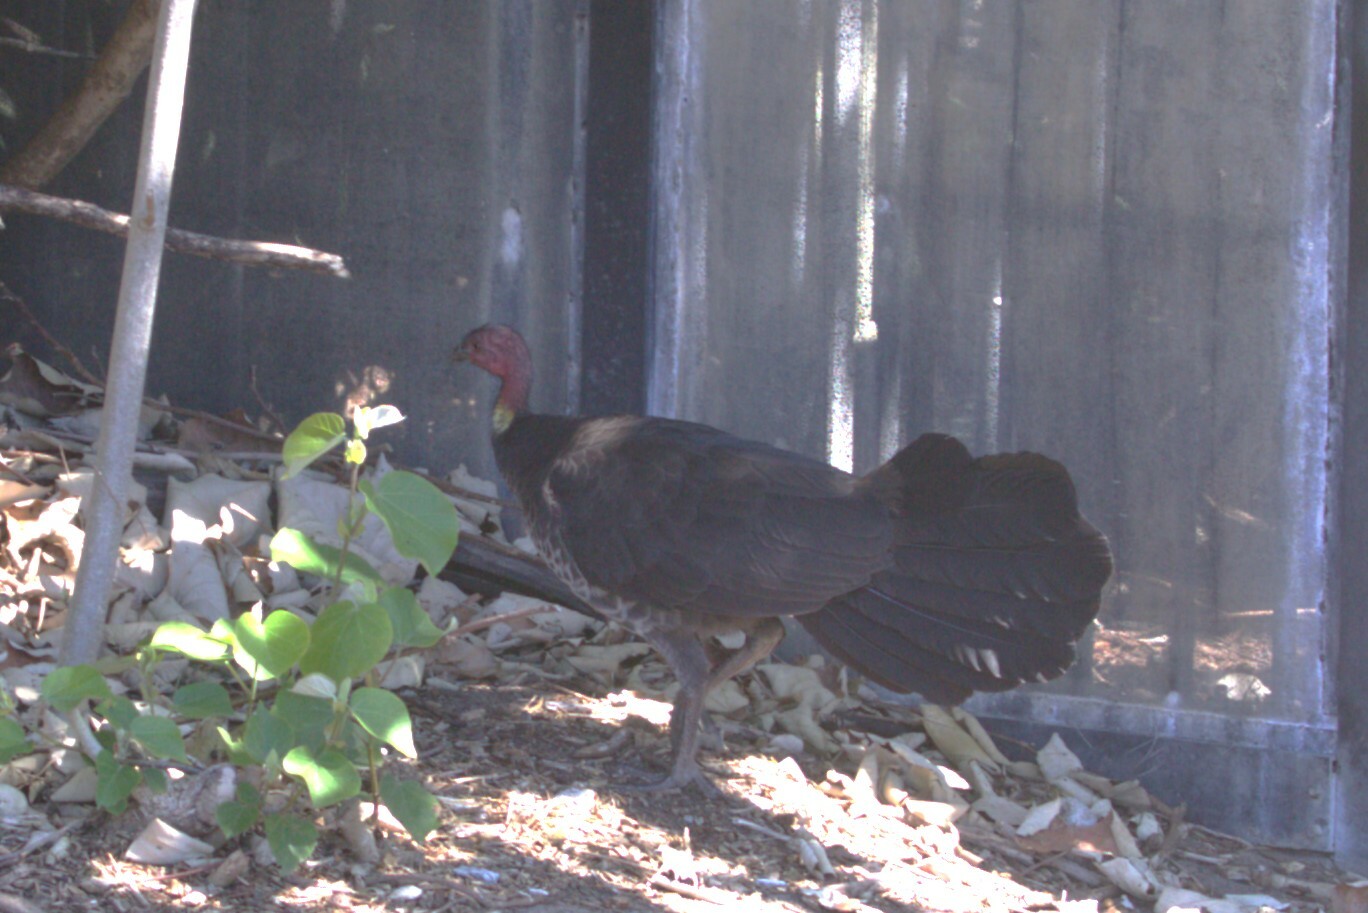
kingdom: Animalia
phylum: Chordata
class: Aves
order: Galliformes
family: Megapodiidae
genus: Alectura
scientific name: Alectura lathami
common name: Australian brushturkey
